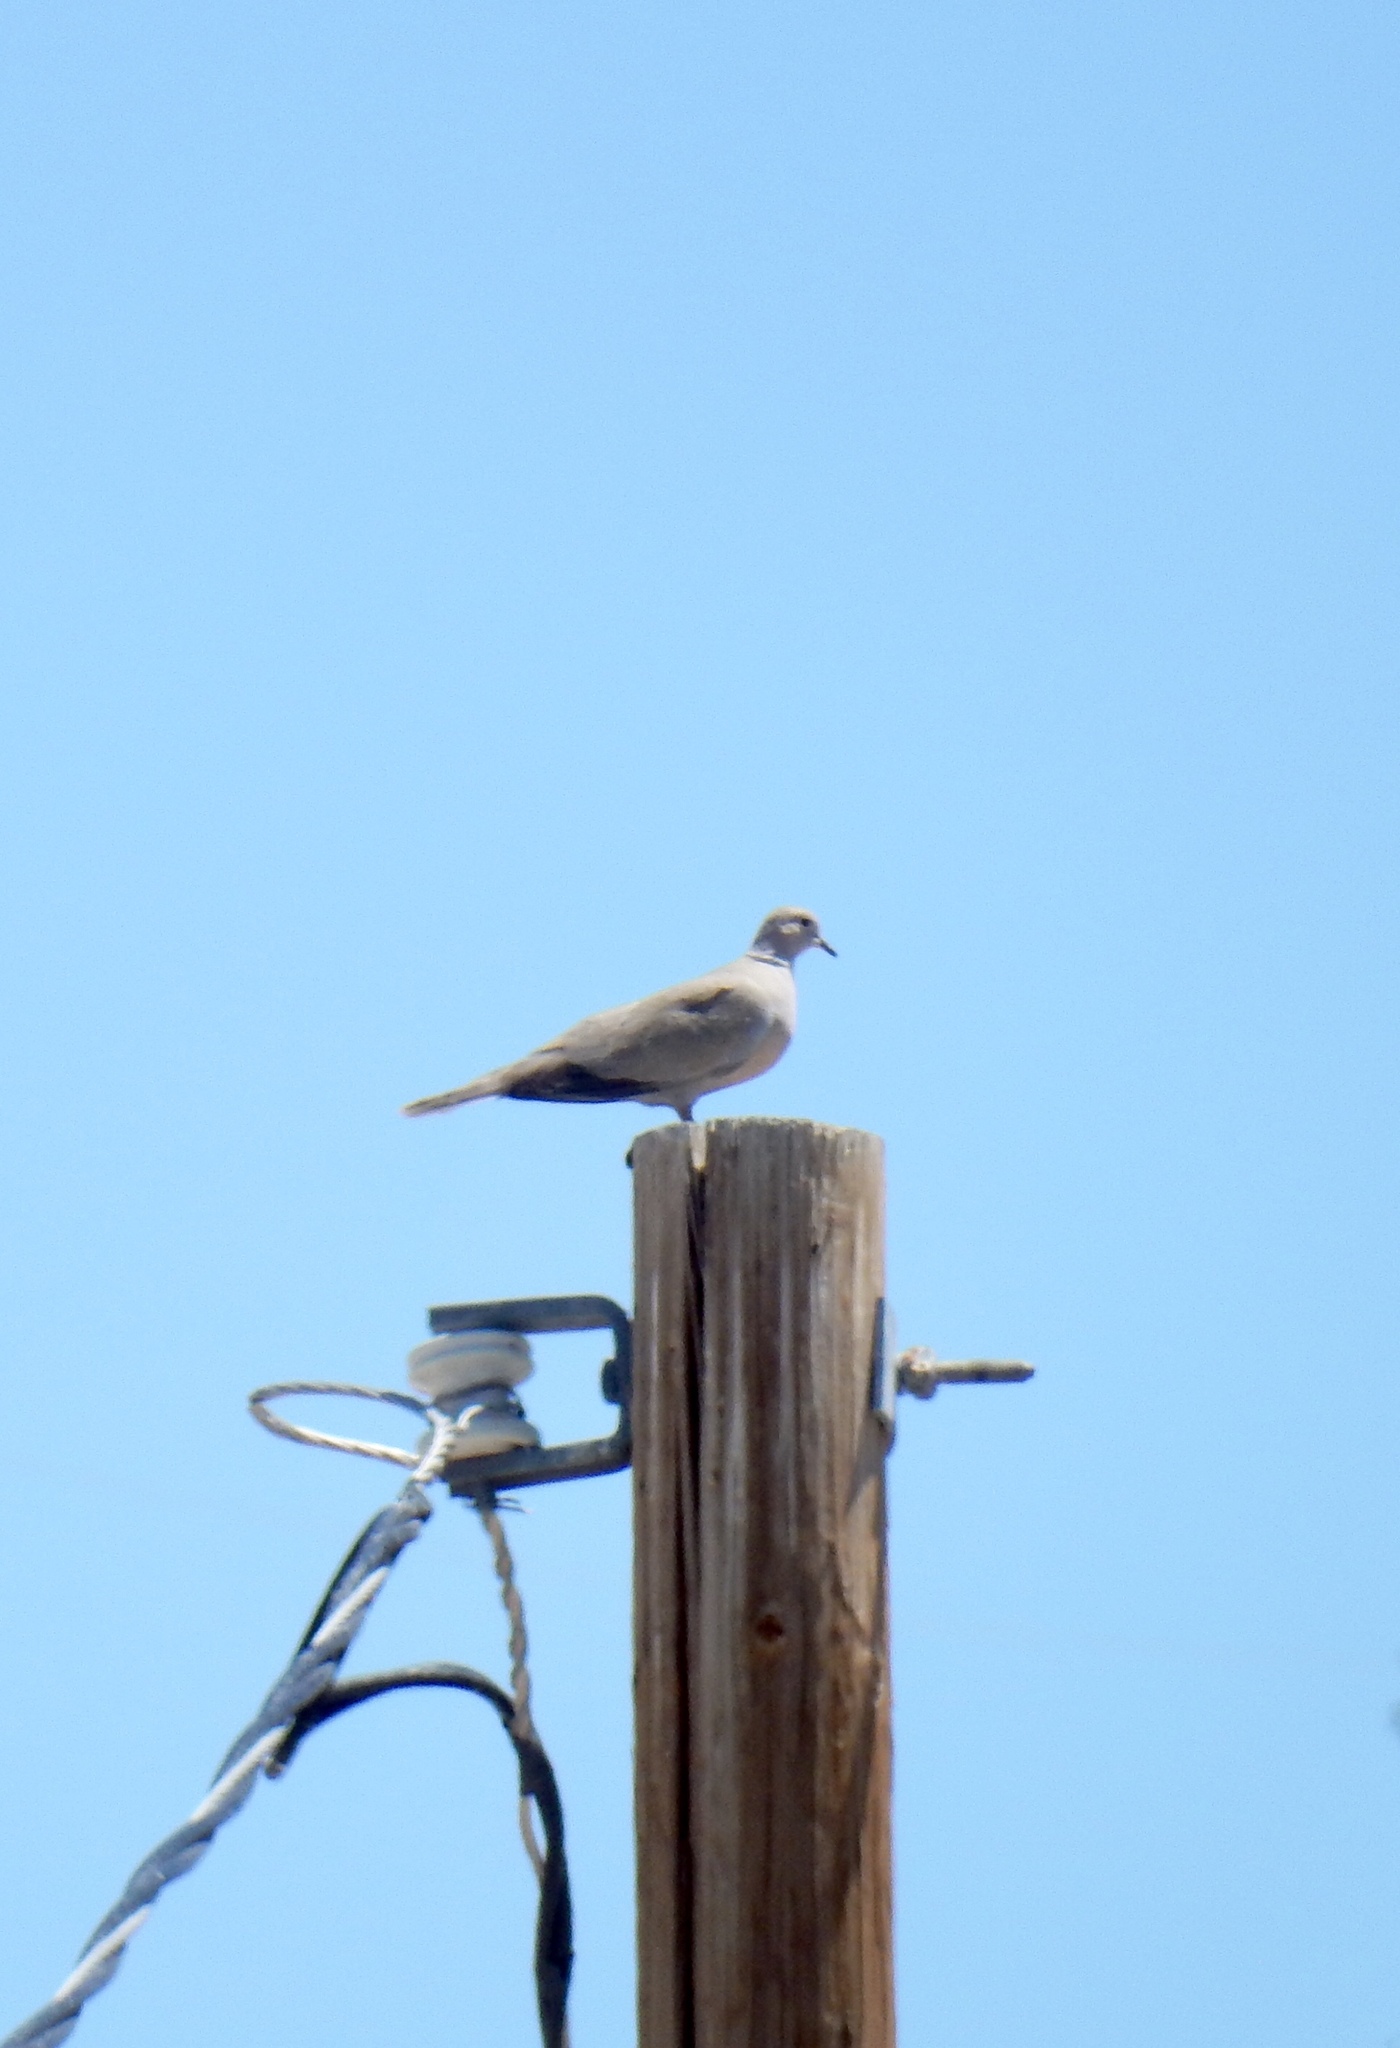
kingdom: Animalia
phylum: Chordata
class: Aves
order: Columbiformes
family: Columbidae
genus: Streptopelia
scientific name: Streptopelia decaocto
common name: Eurasian collared dove
